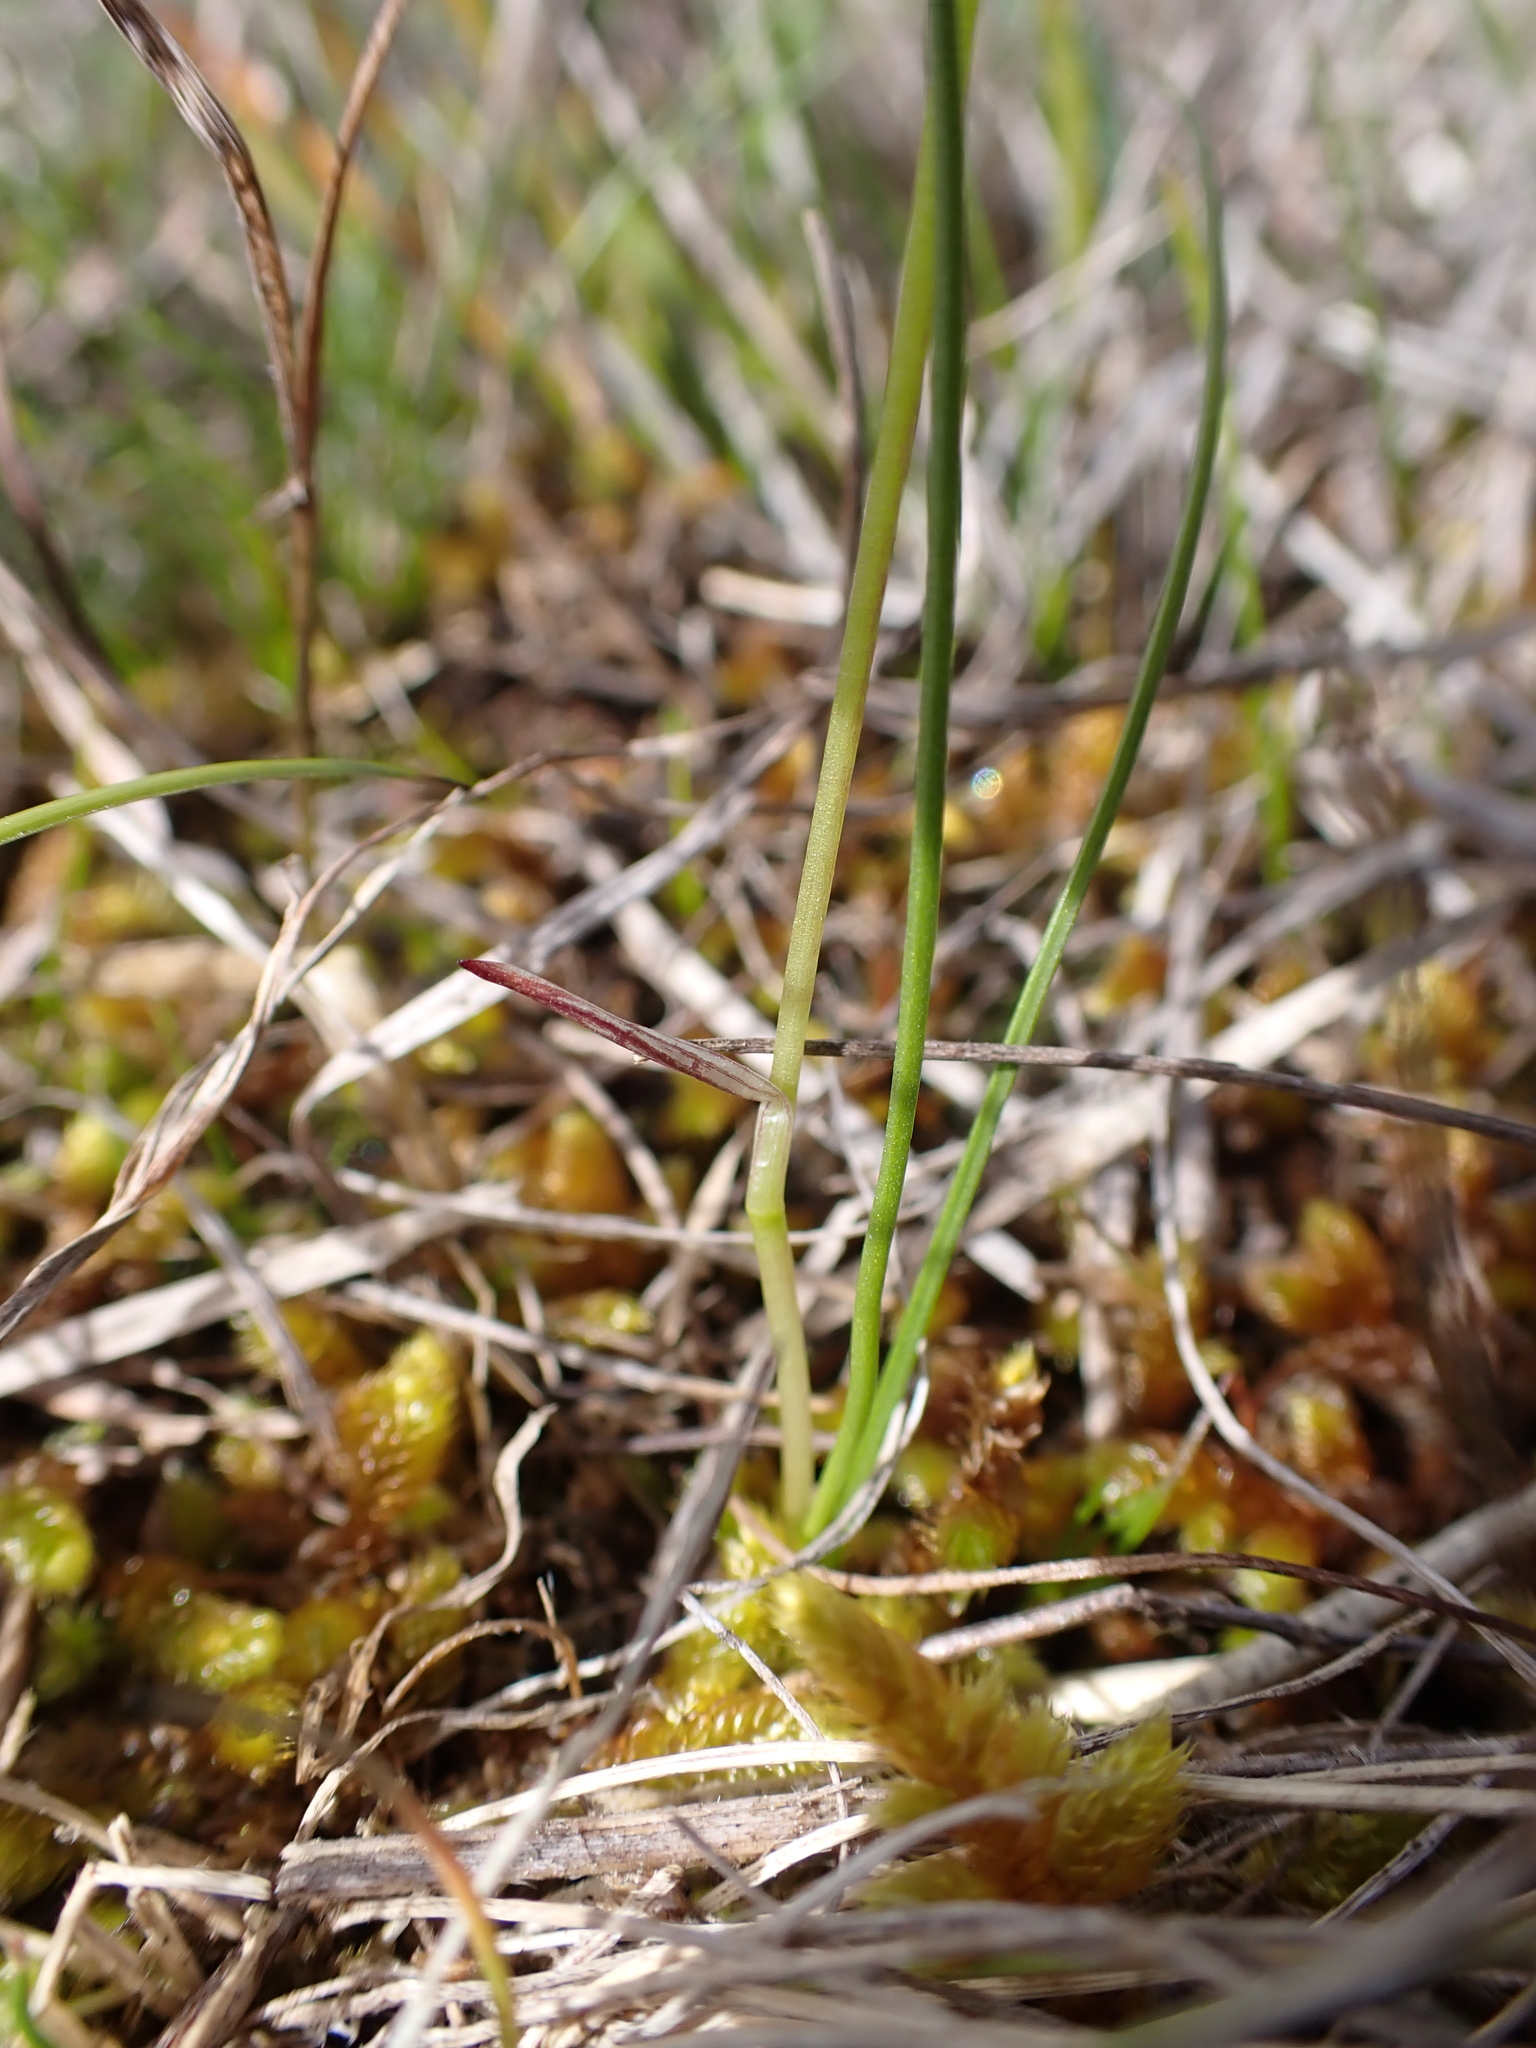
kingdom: Plantae
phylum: Tracheophyta
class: Liliopsida
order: Asparagales
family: Hypoxidaceae
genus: Pauridia
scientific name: Pauridia vaginata
